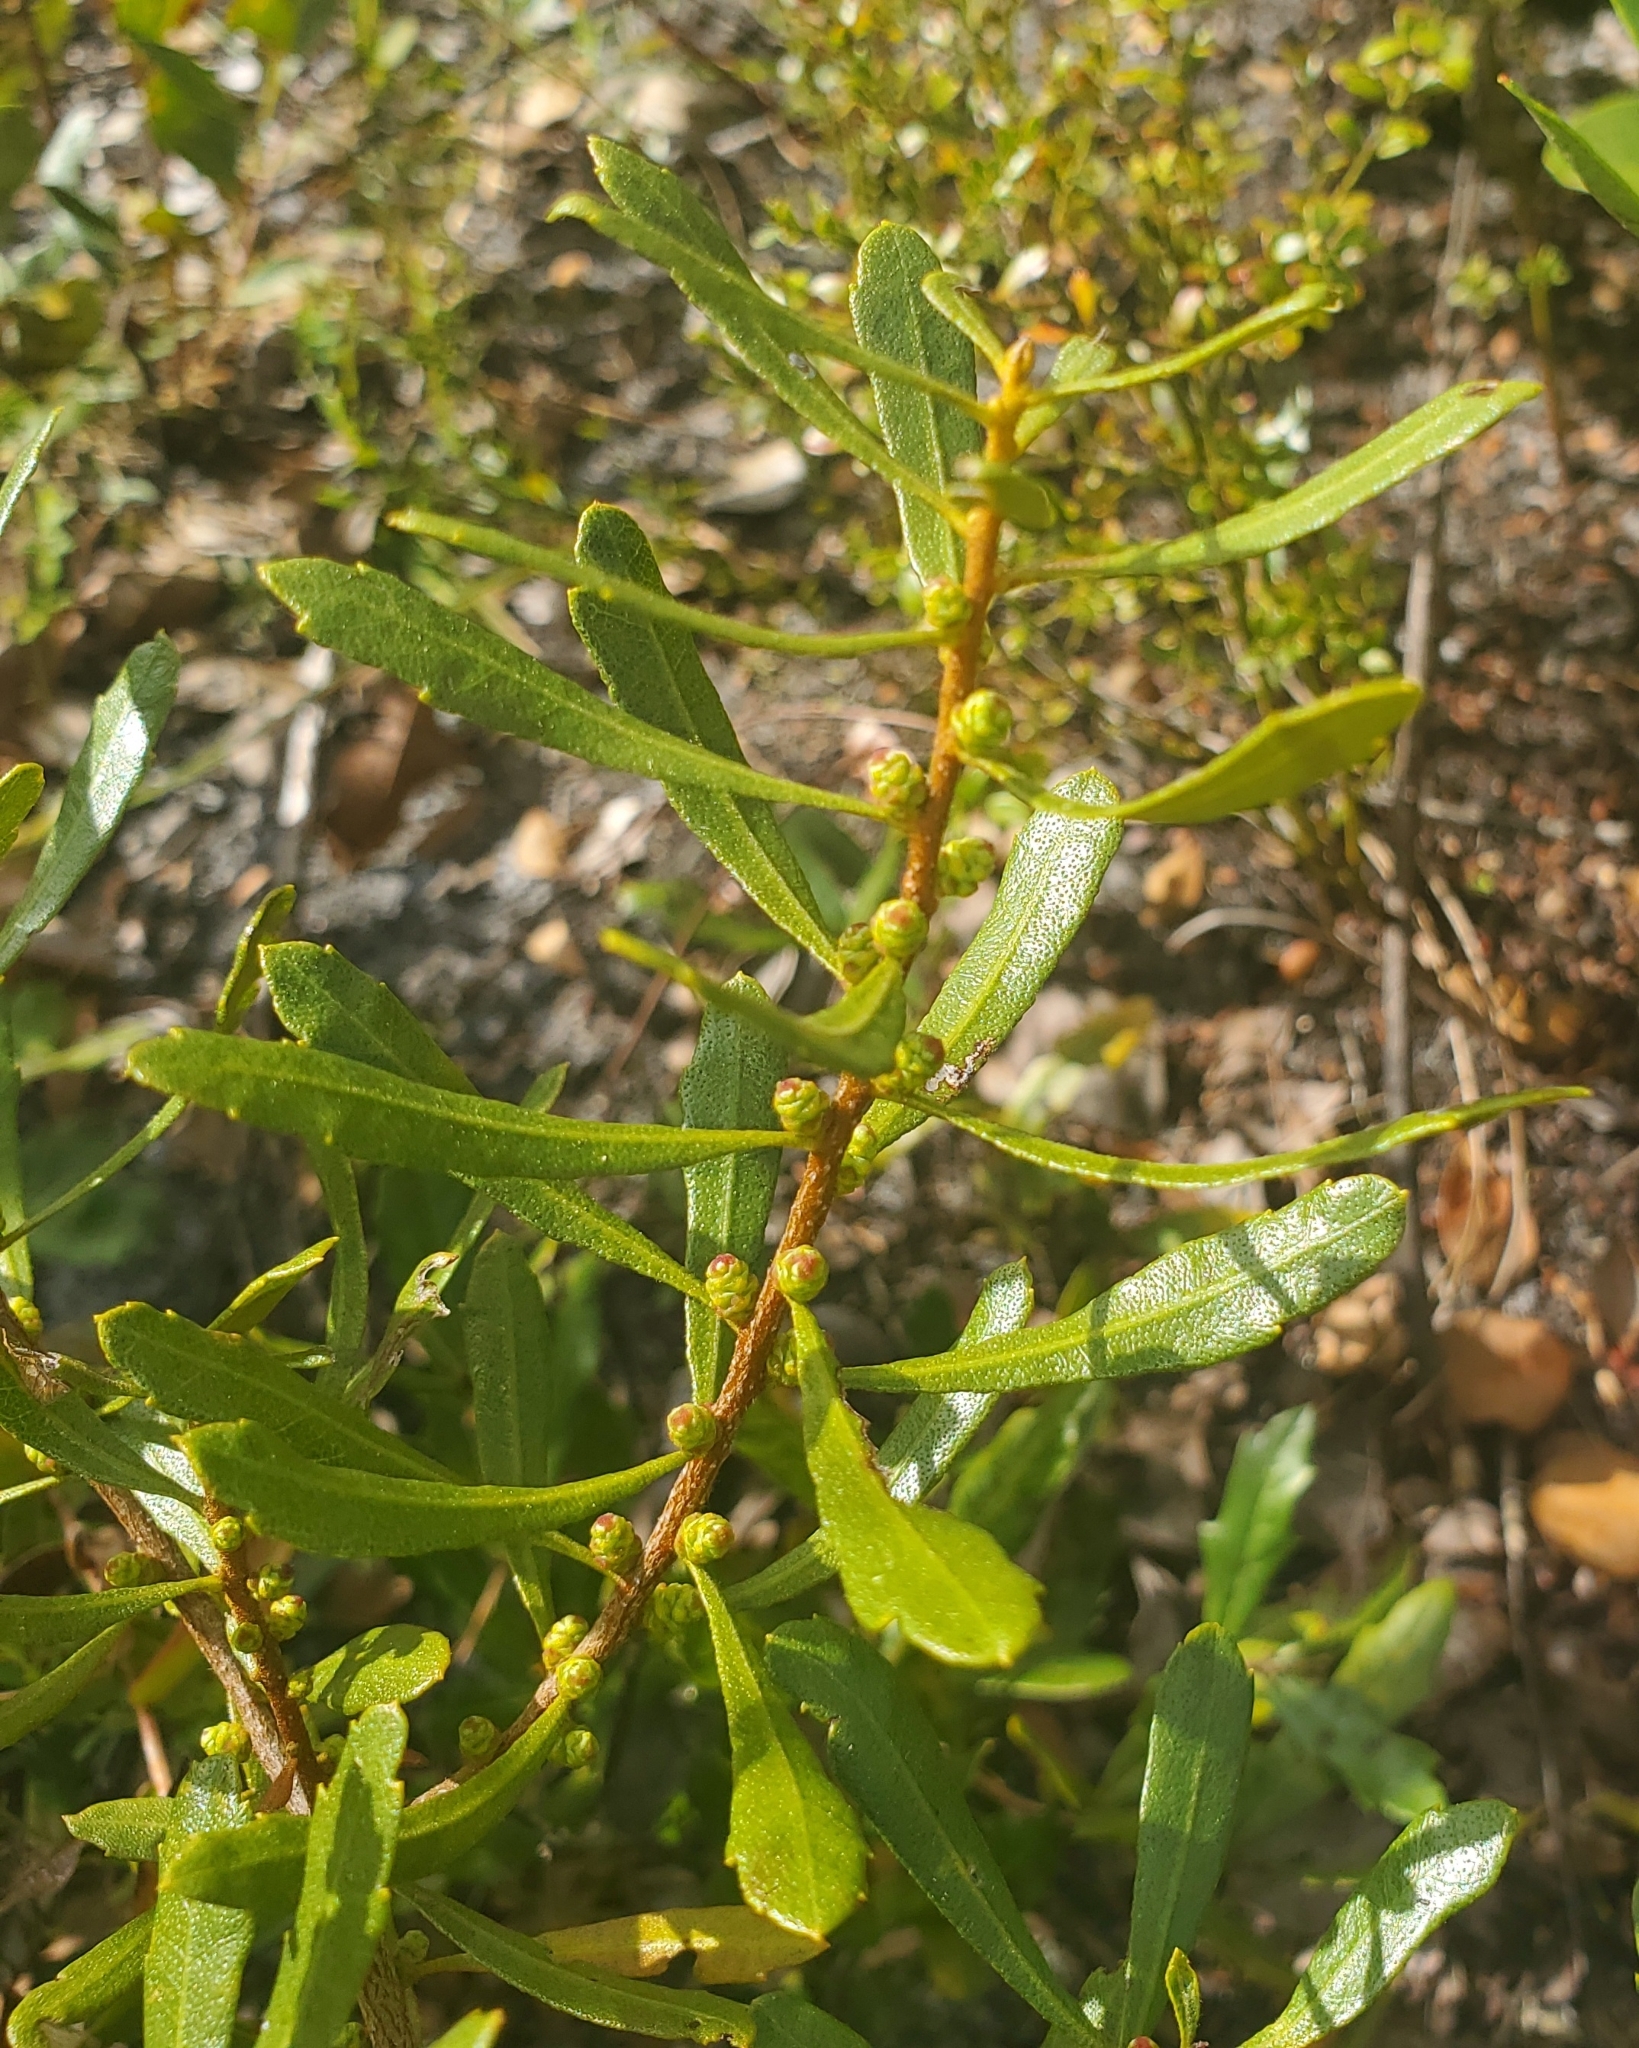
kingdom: Plantae
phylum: Tracheophyta
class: Magnoliopsida
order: Fagales
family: Myricaceae
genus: Morella
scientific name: Morella cerifera
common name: Wax myrtle
